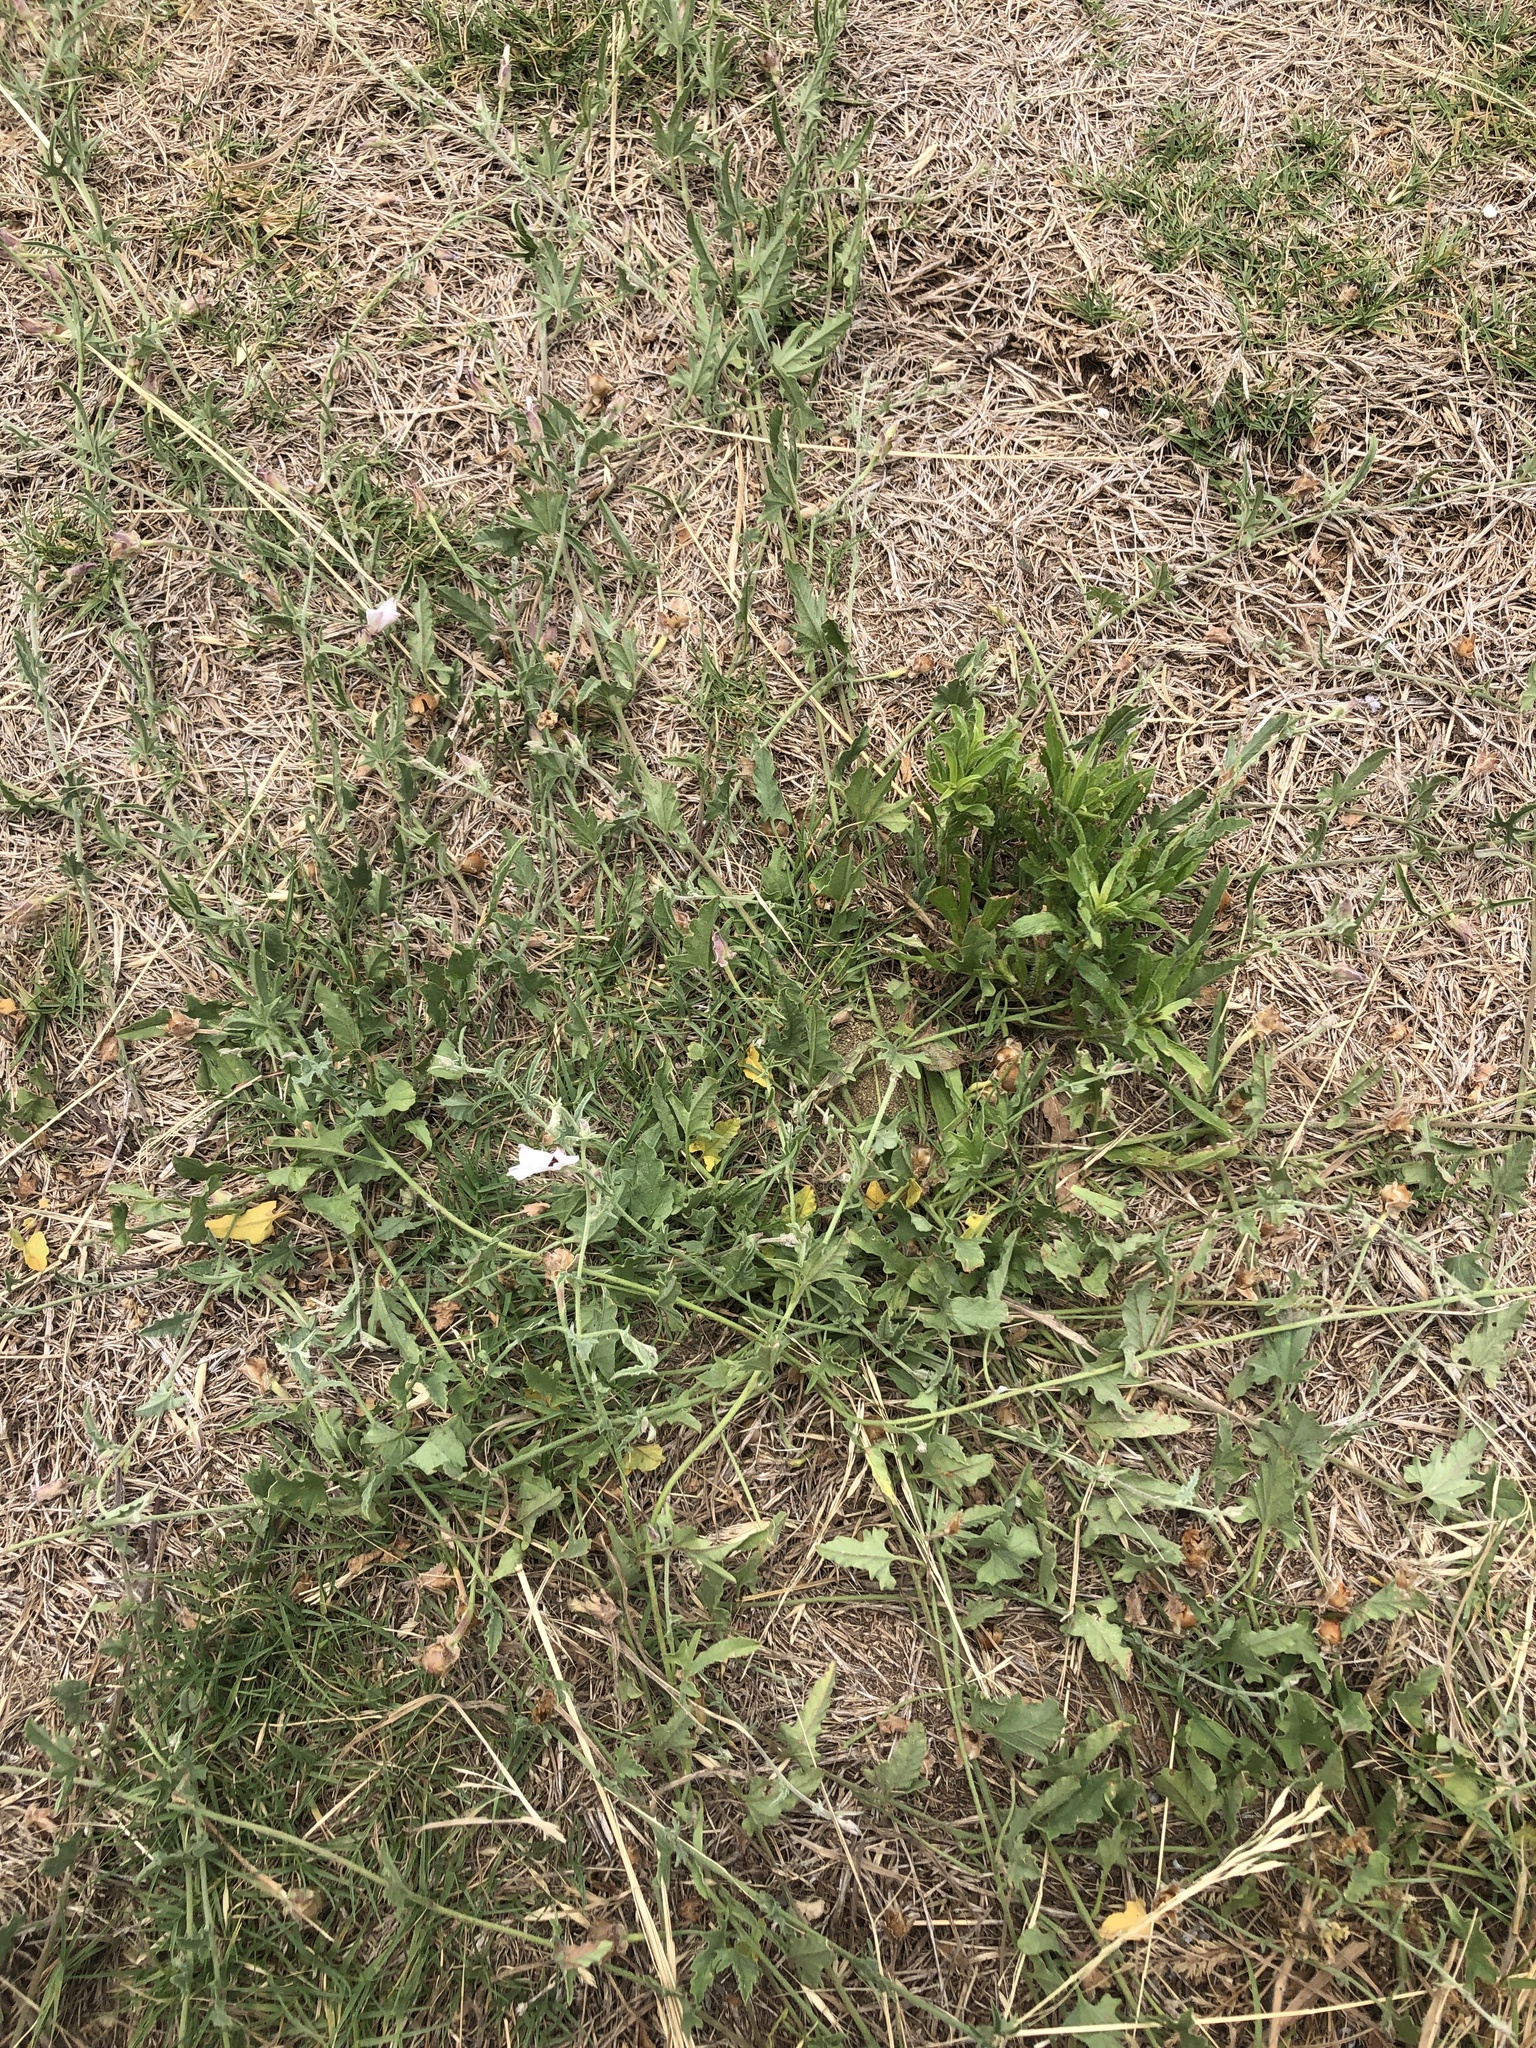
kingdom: Plantae
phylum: Tracheophyta
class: Magnoliopsida
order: Solanales
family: Convolvulaceae
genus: Convolvulus
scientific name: Convolvulus equitans
